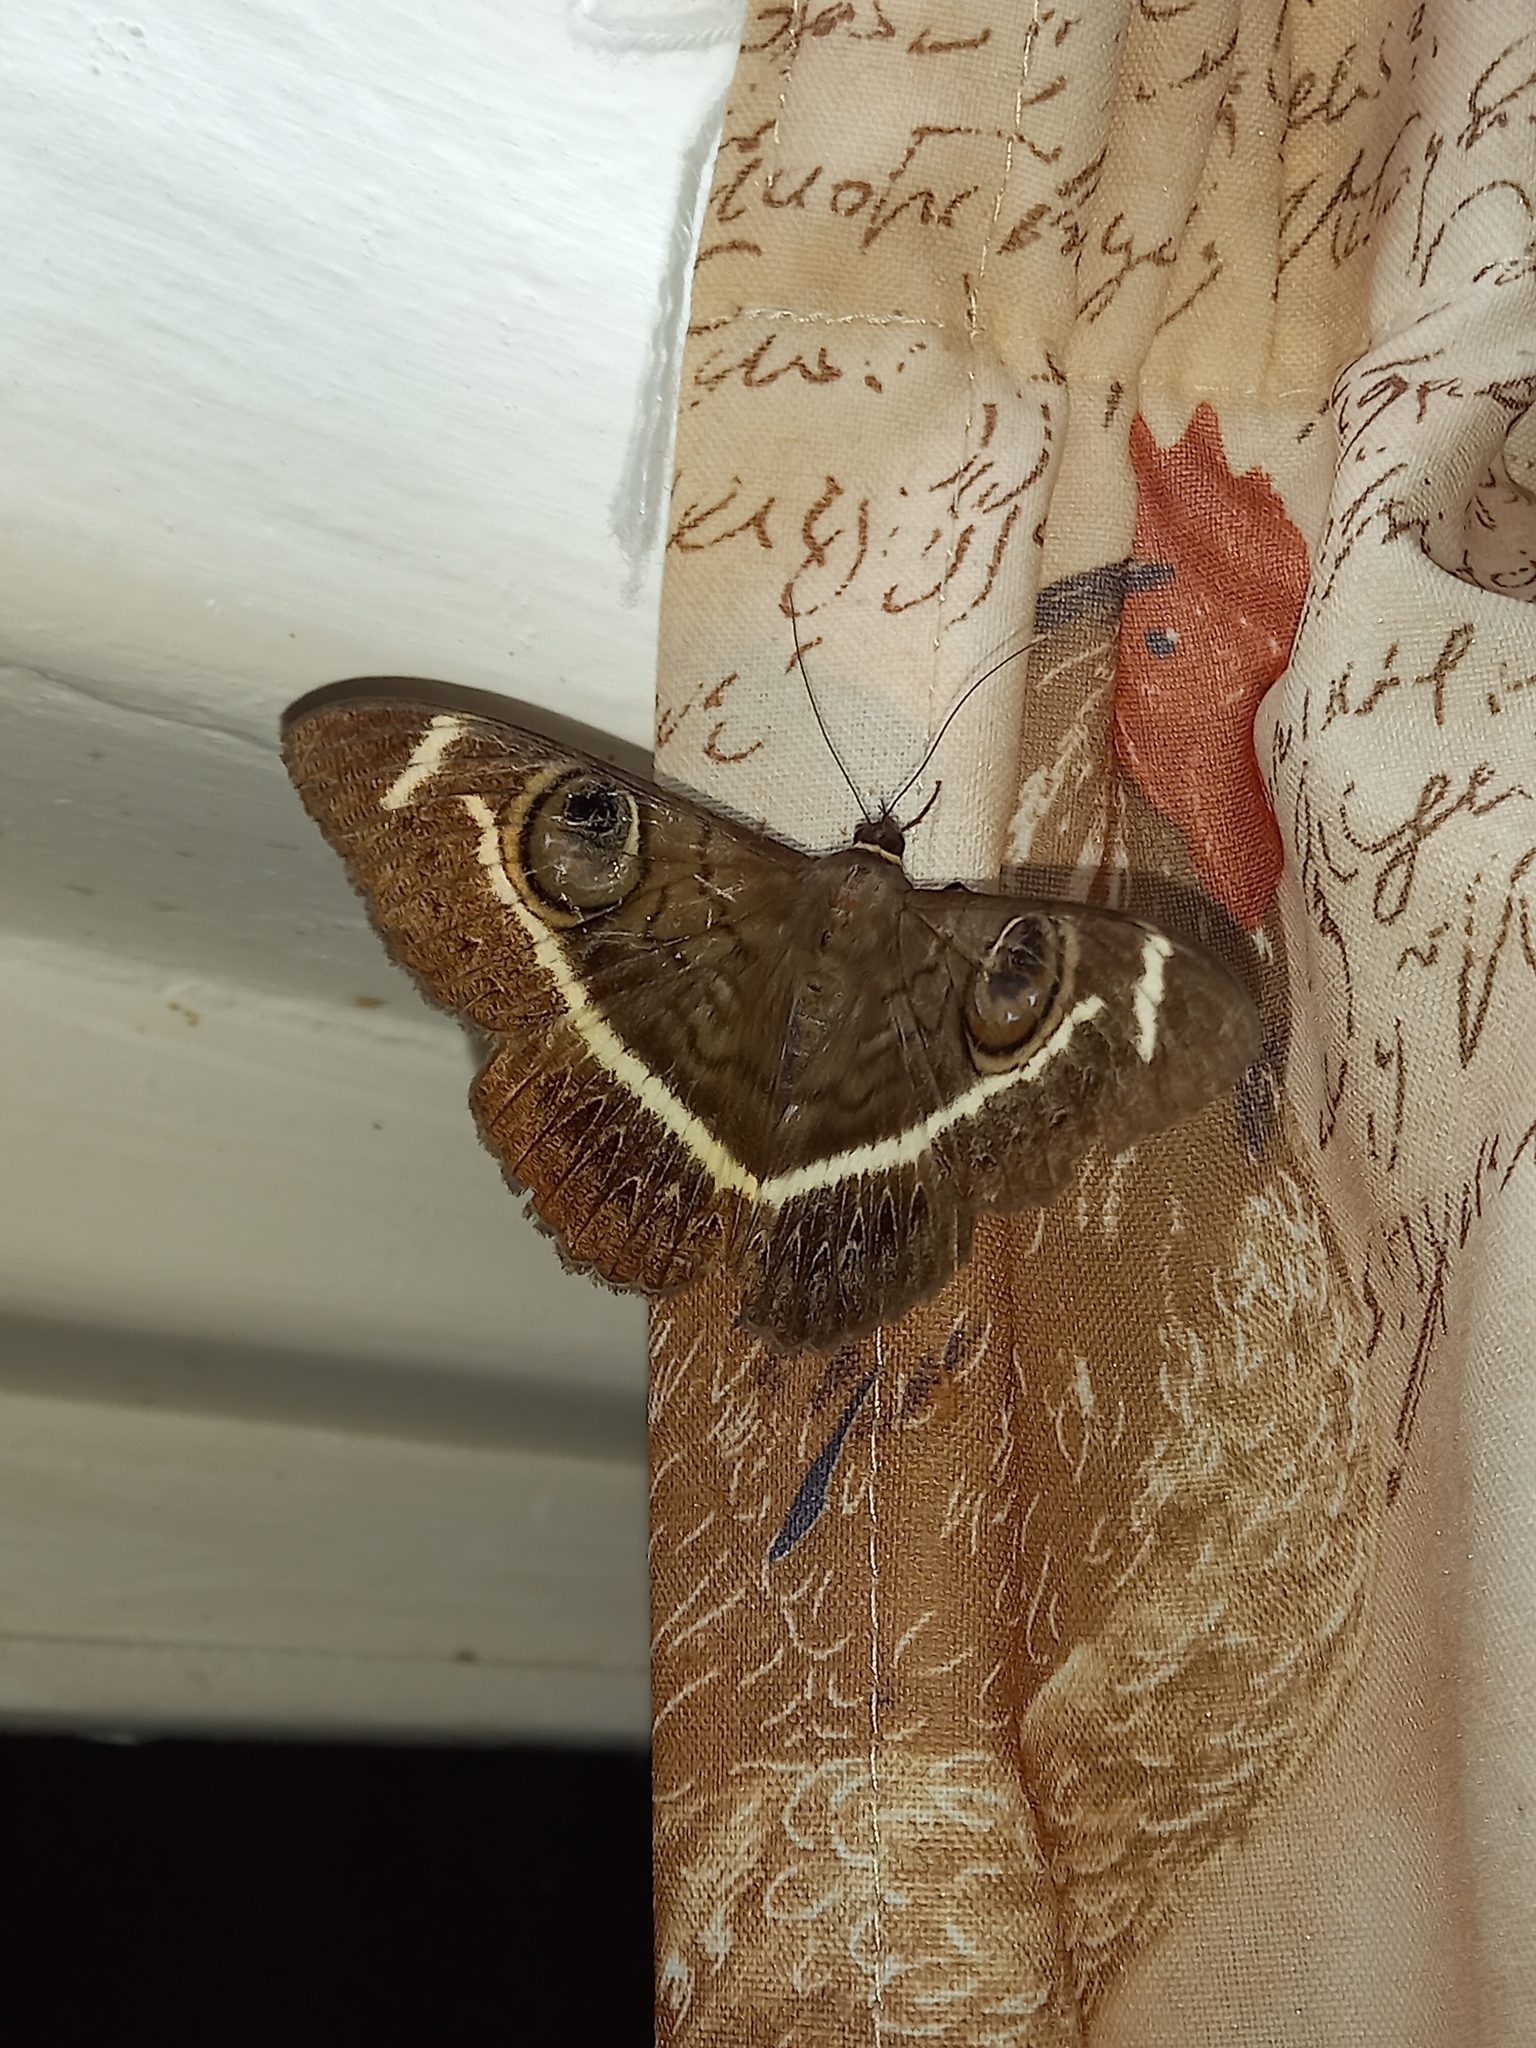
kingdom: Animalia
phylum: Arthropoda
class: Insecta
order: Lepidoptera
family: Erebidae
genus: Cyligramma
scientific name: Cyligramma latona
